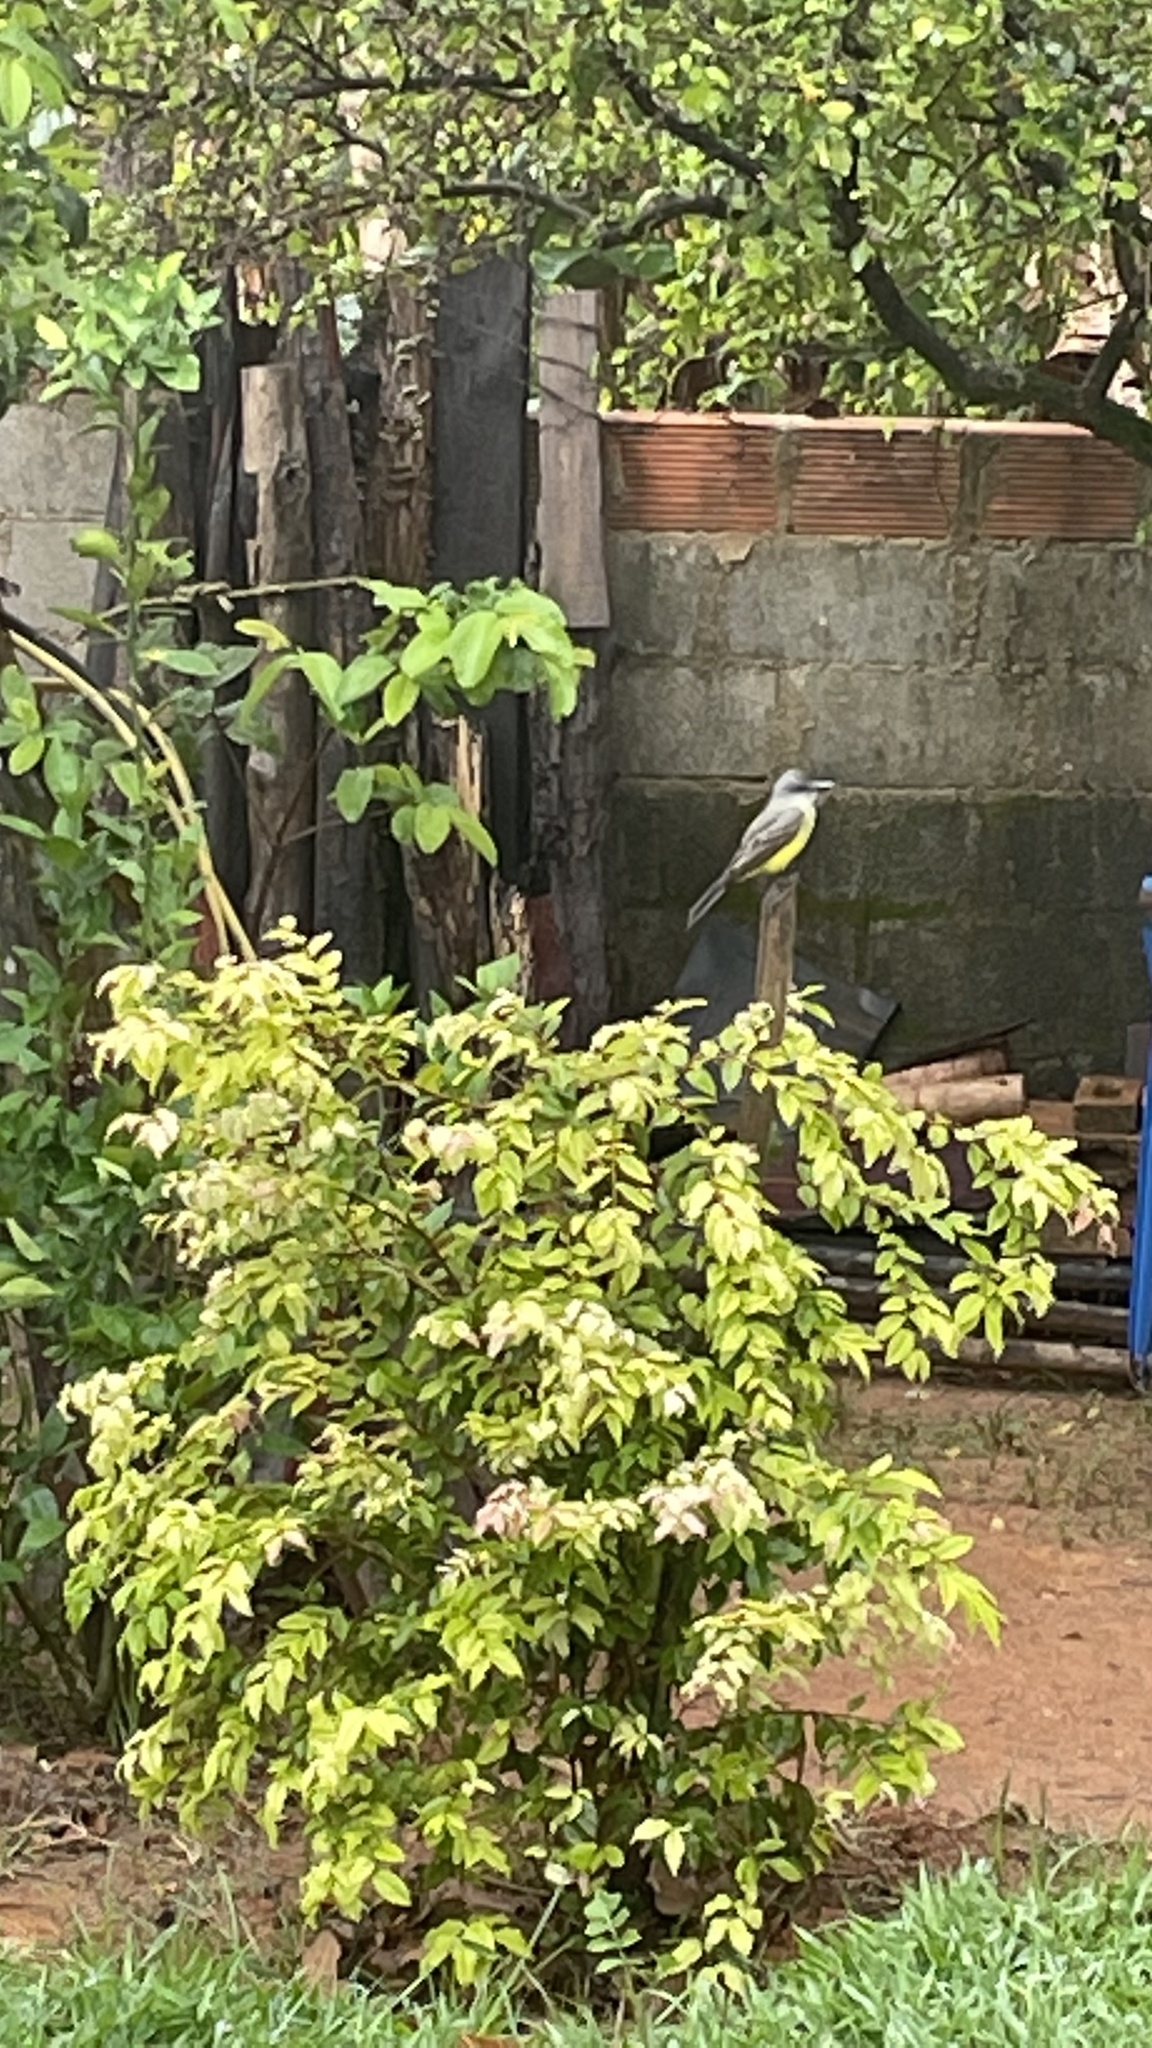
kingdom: Animalia
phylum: Chordata
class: Aves
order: Passeriformes
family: Tyrannidae
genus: Tyrannus
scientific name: Tyrannus melancholicus
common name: Tropical kingbird
